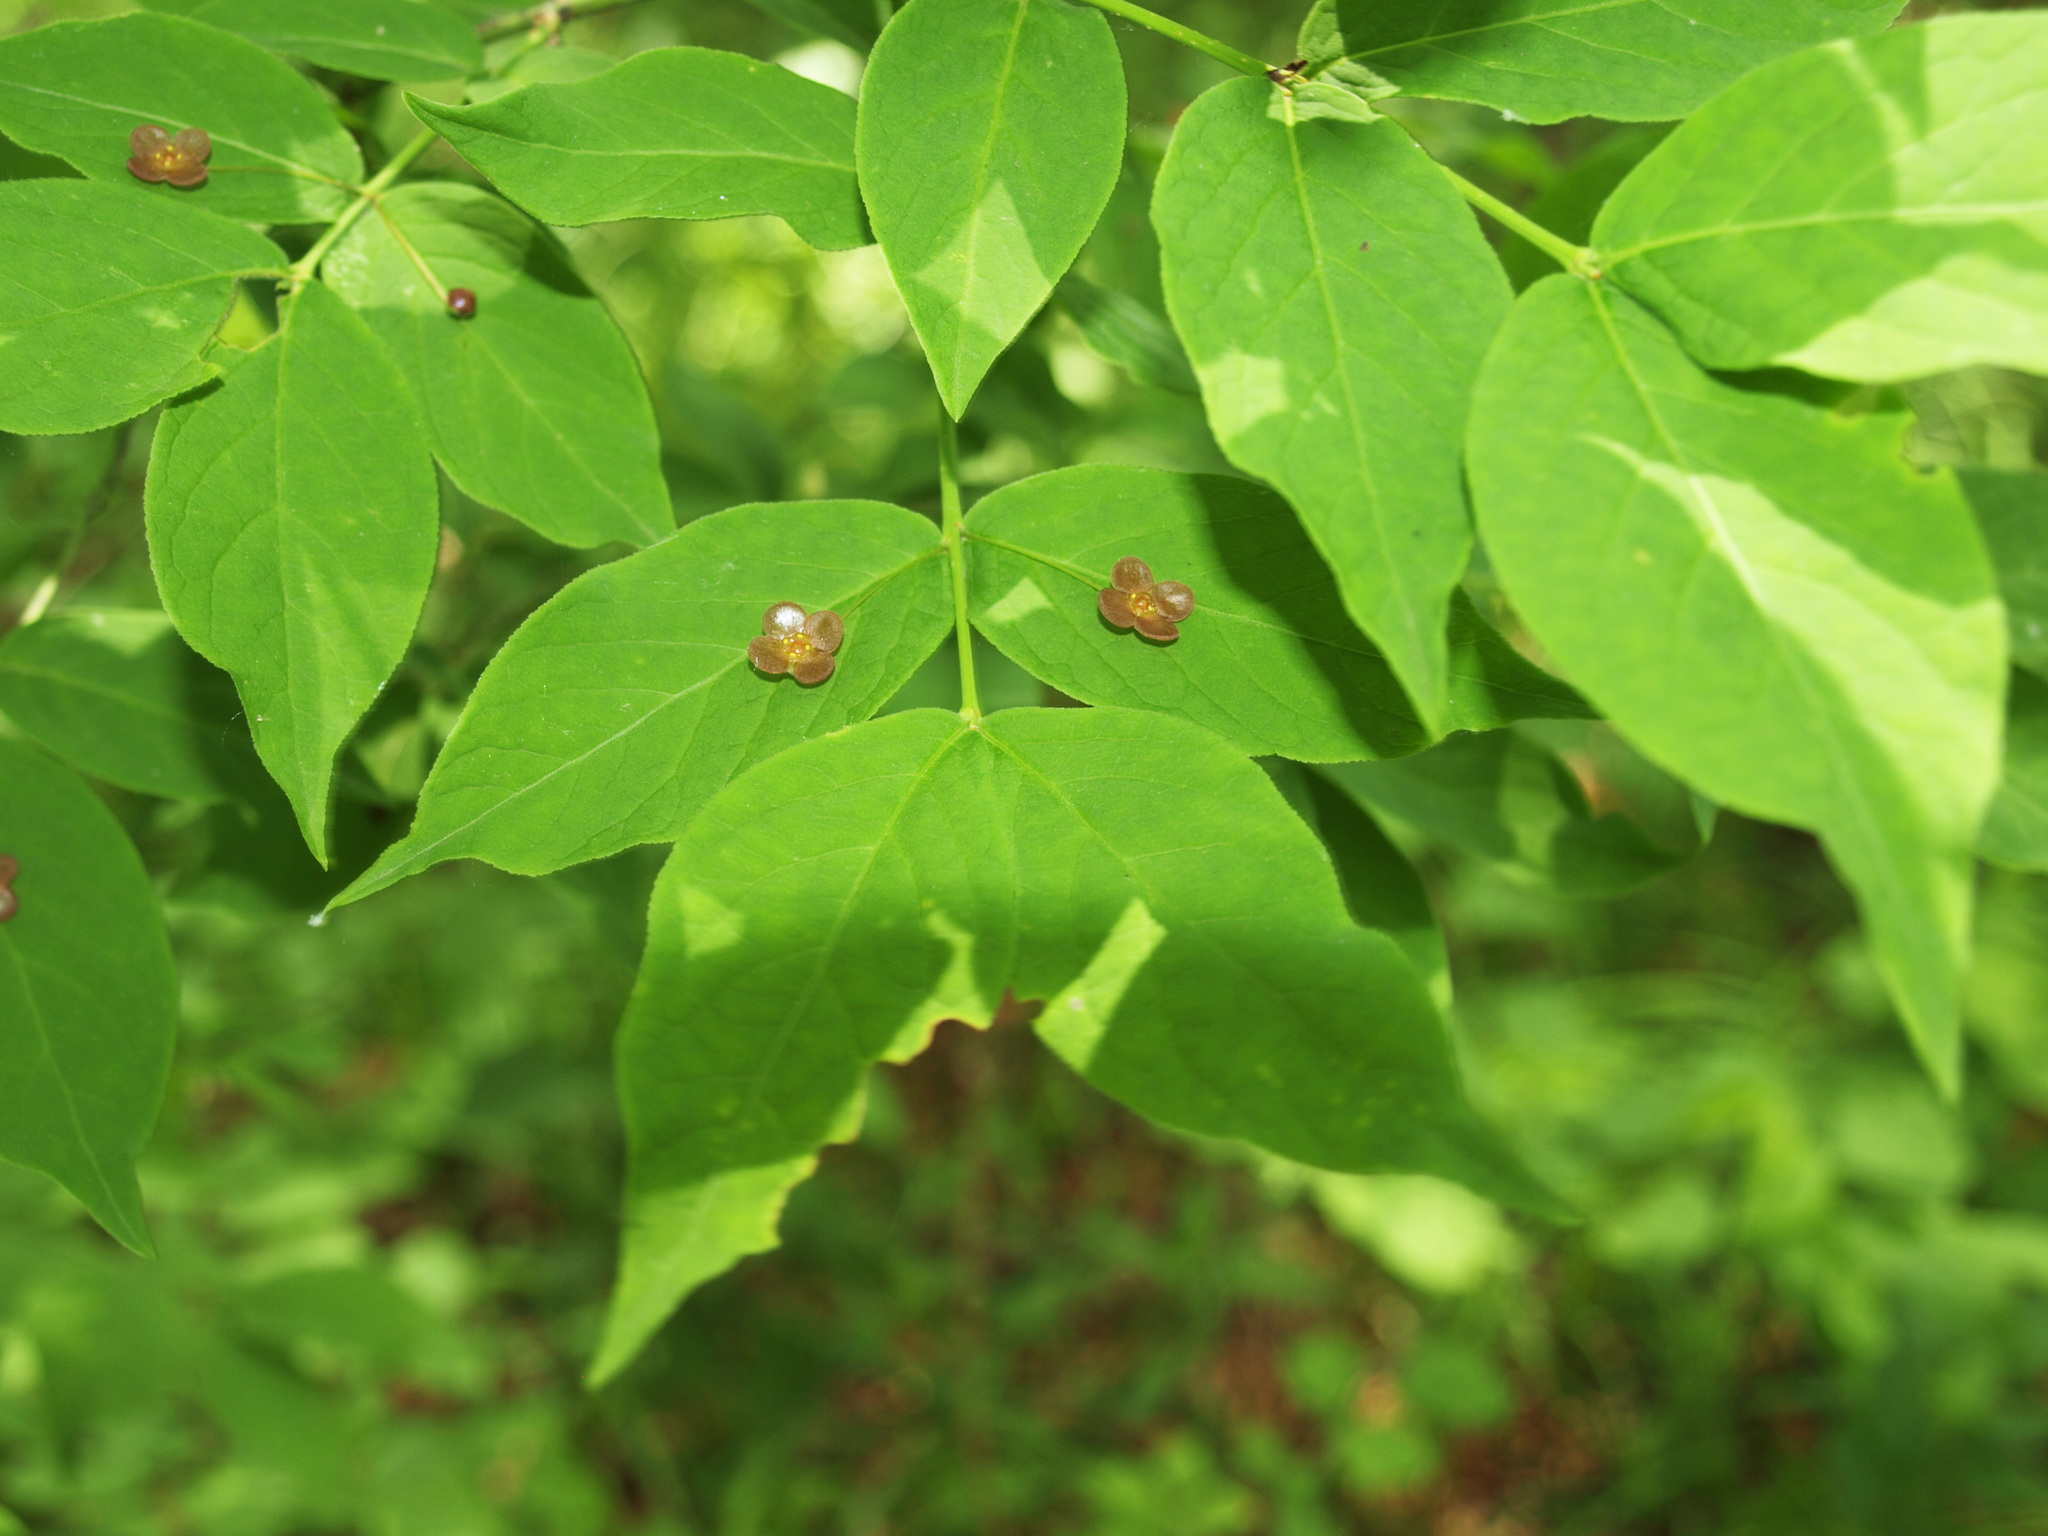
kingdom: Plantae
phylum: Tracheophyta
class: Magnoliopsida
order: Celastrales
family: Celastraceae
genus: Euonymus
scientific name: Euonymus verrucosus
